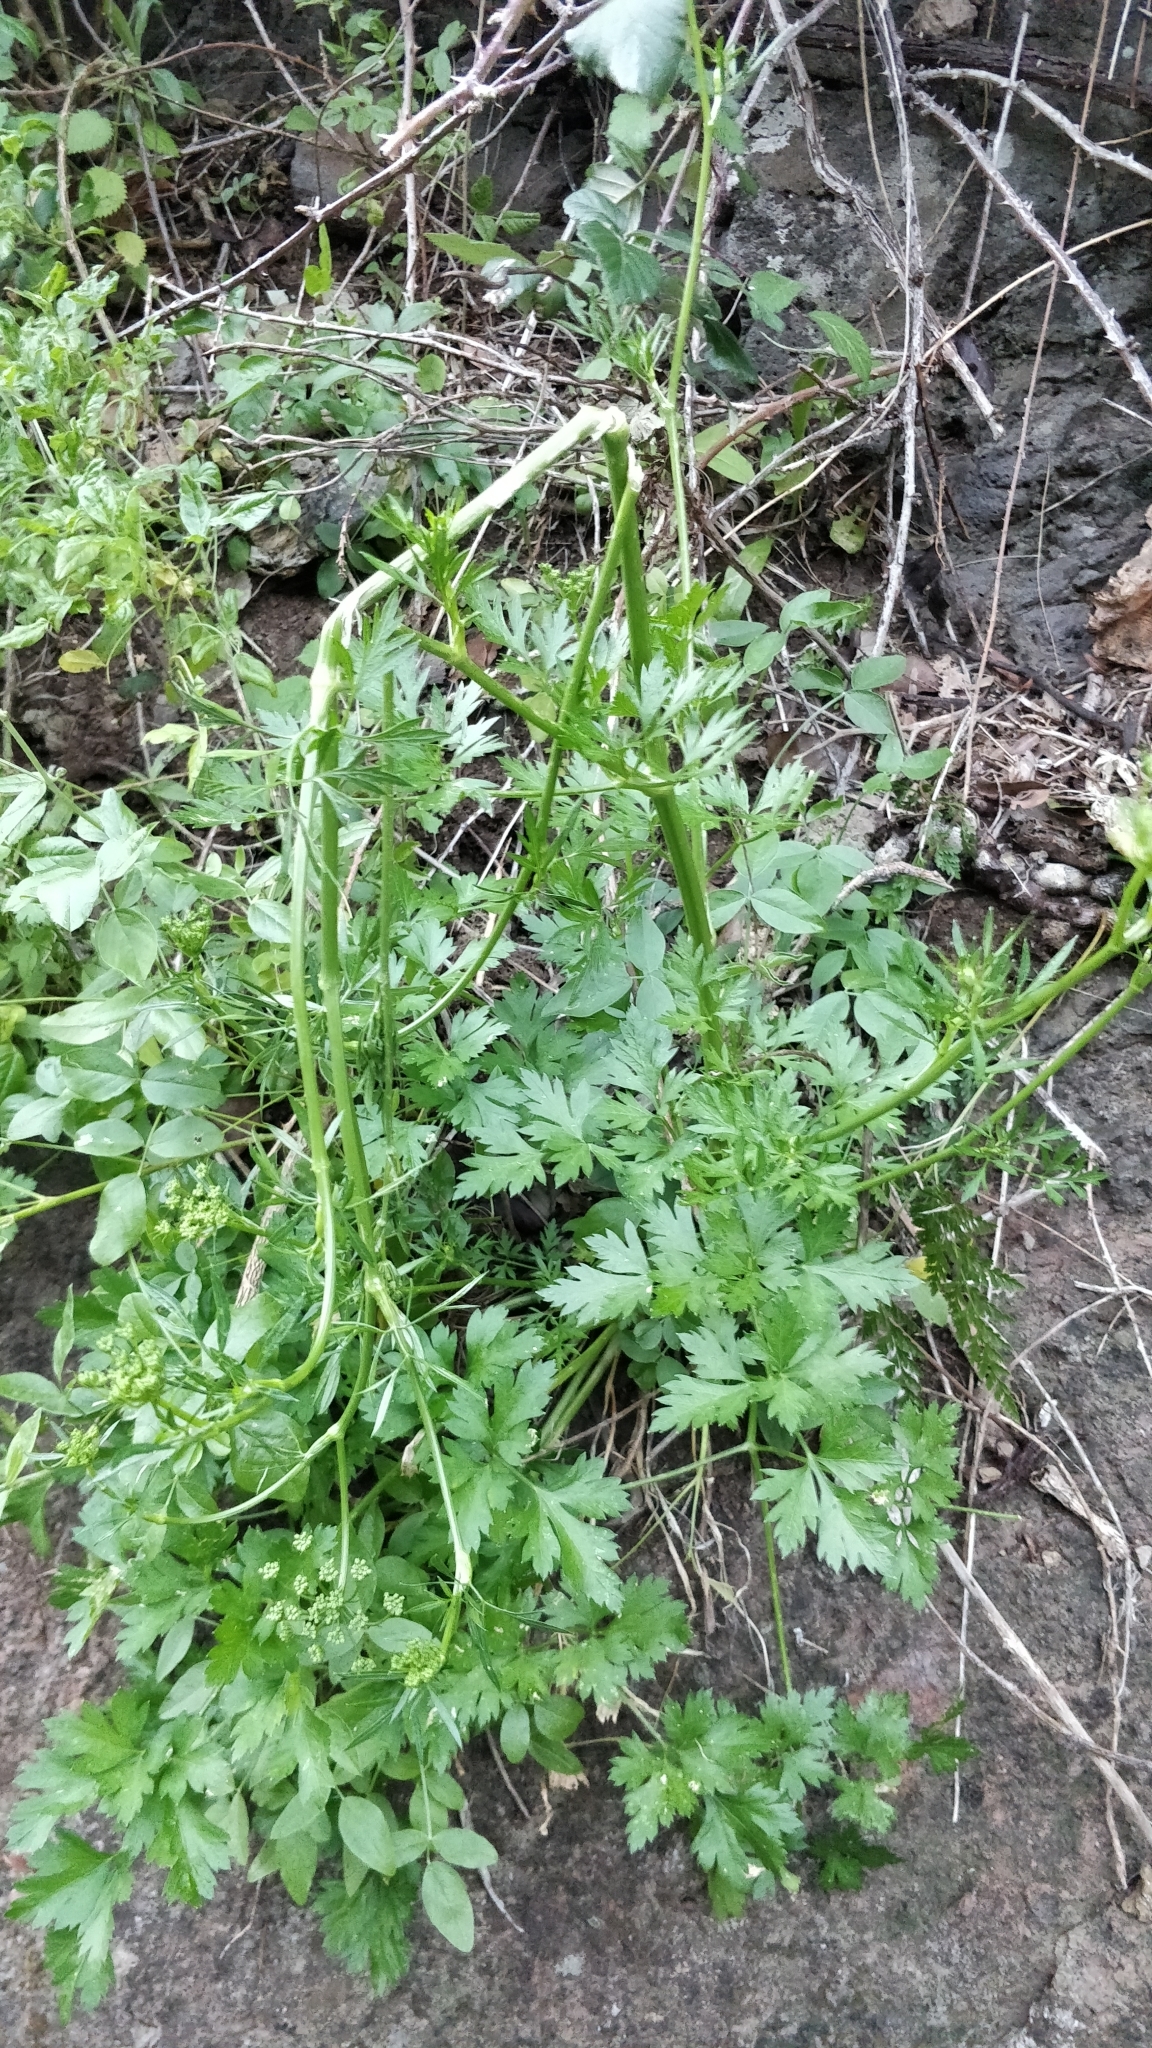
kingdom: Plantae
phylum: Tracheophyta
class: Magnoliopsida
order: Apiales
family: Apiaceae
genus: Petroselinum
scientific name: Petroselinum crispum
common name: Parsley
